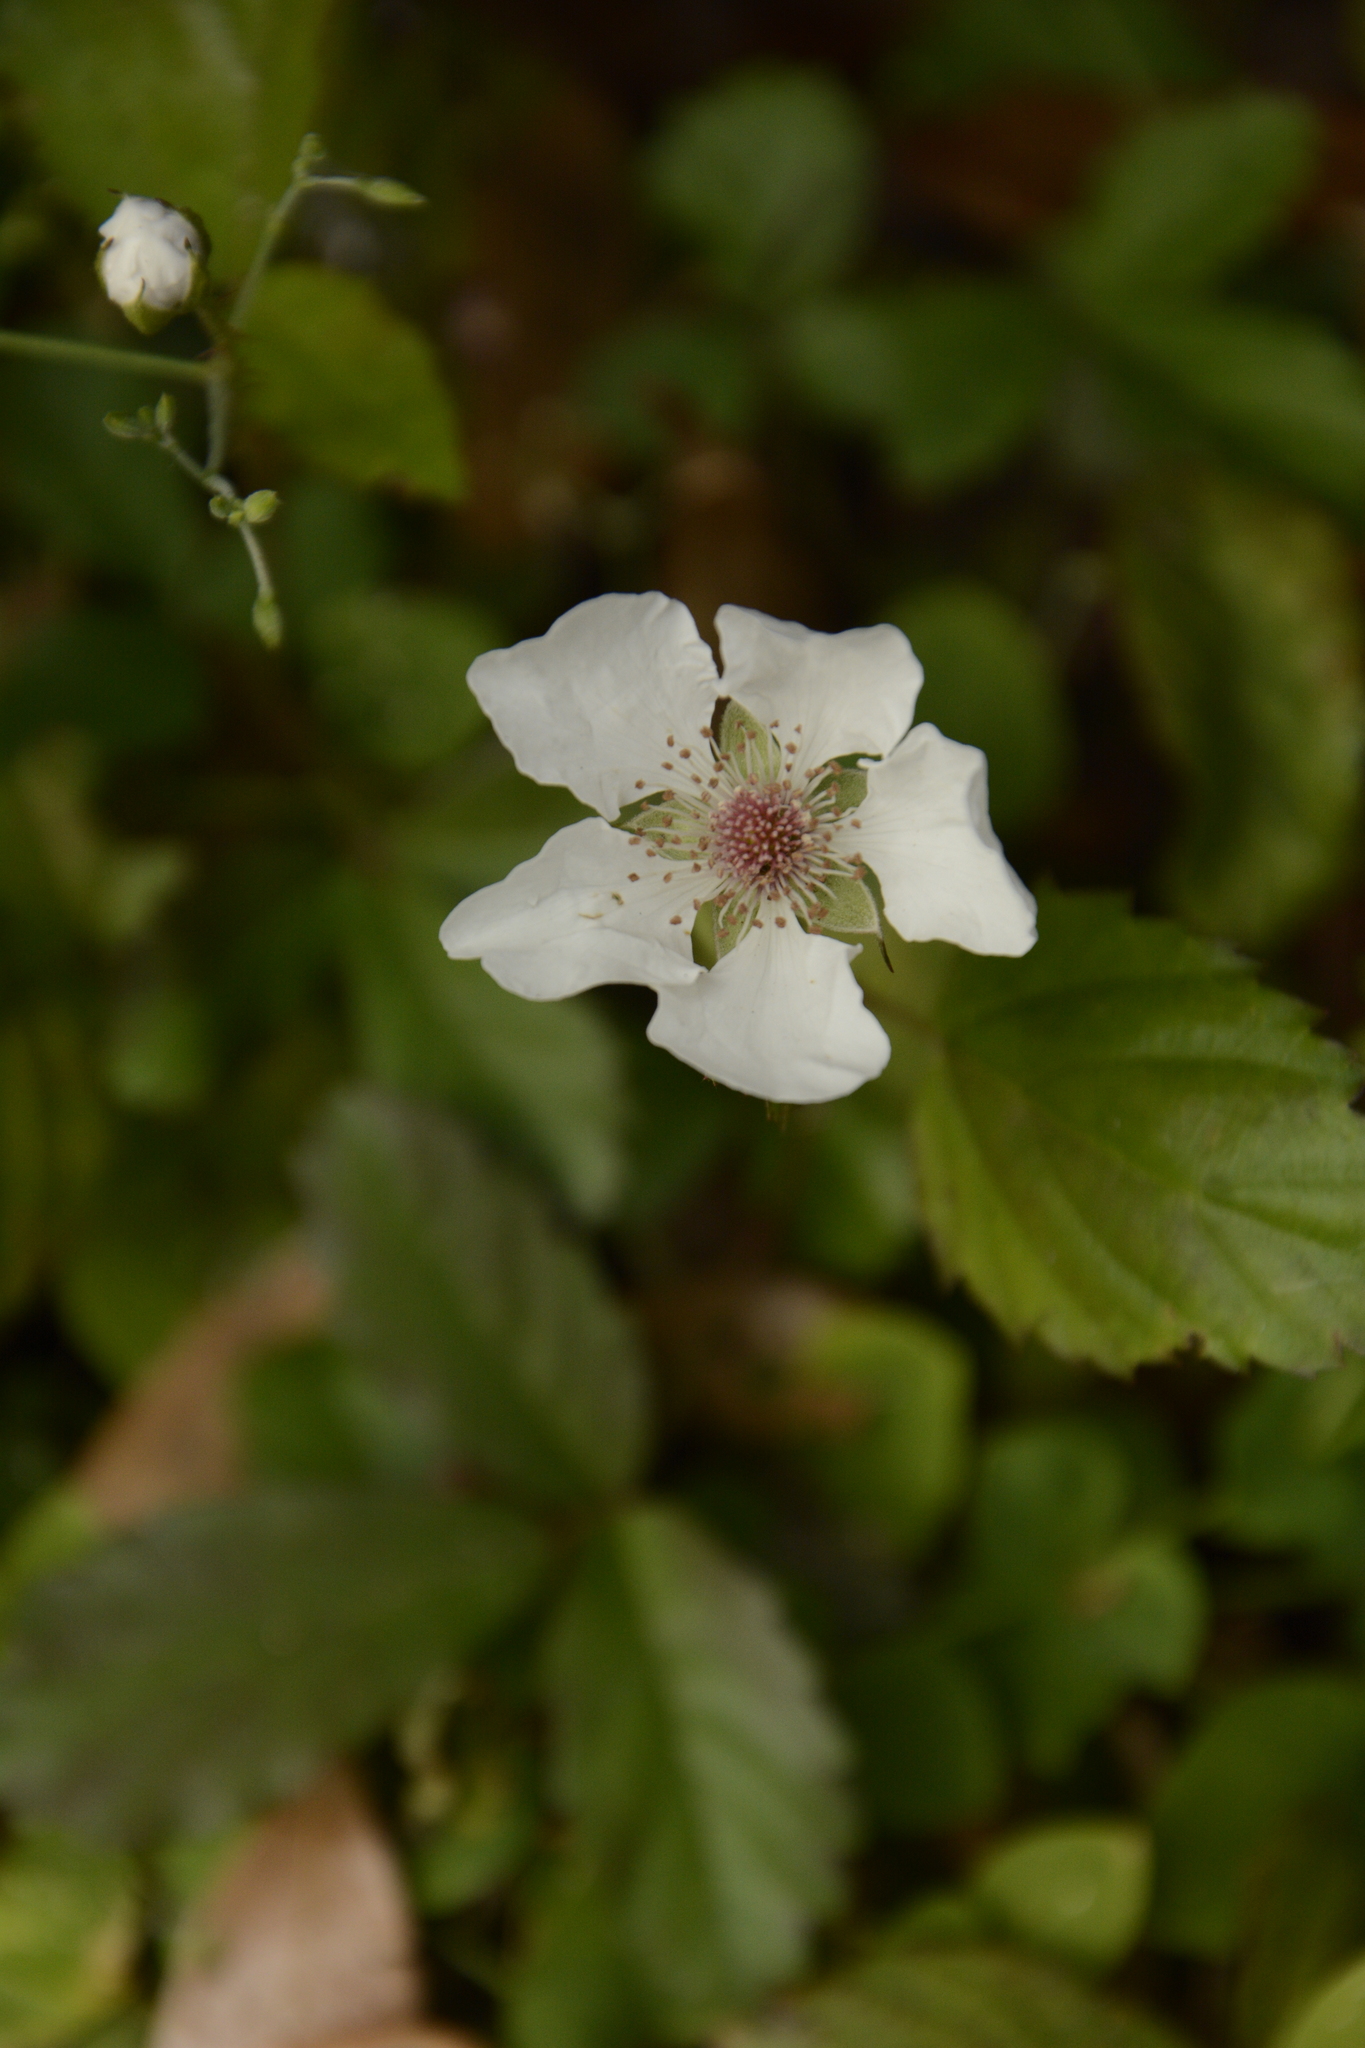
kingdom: Plantae
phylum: Tracheophyta
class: Magnoliopsida
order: Rosales
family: Rosaceae
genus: Rubus
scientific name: Rubus trivialis
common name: Southern dewberry
